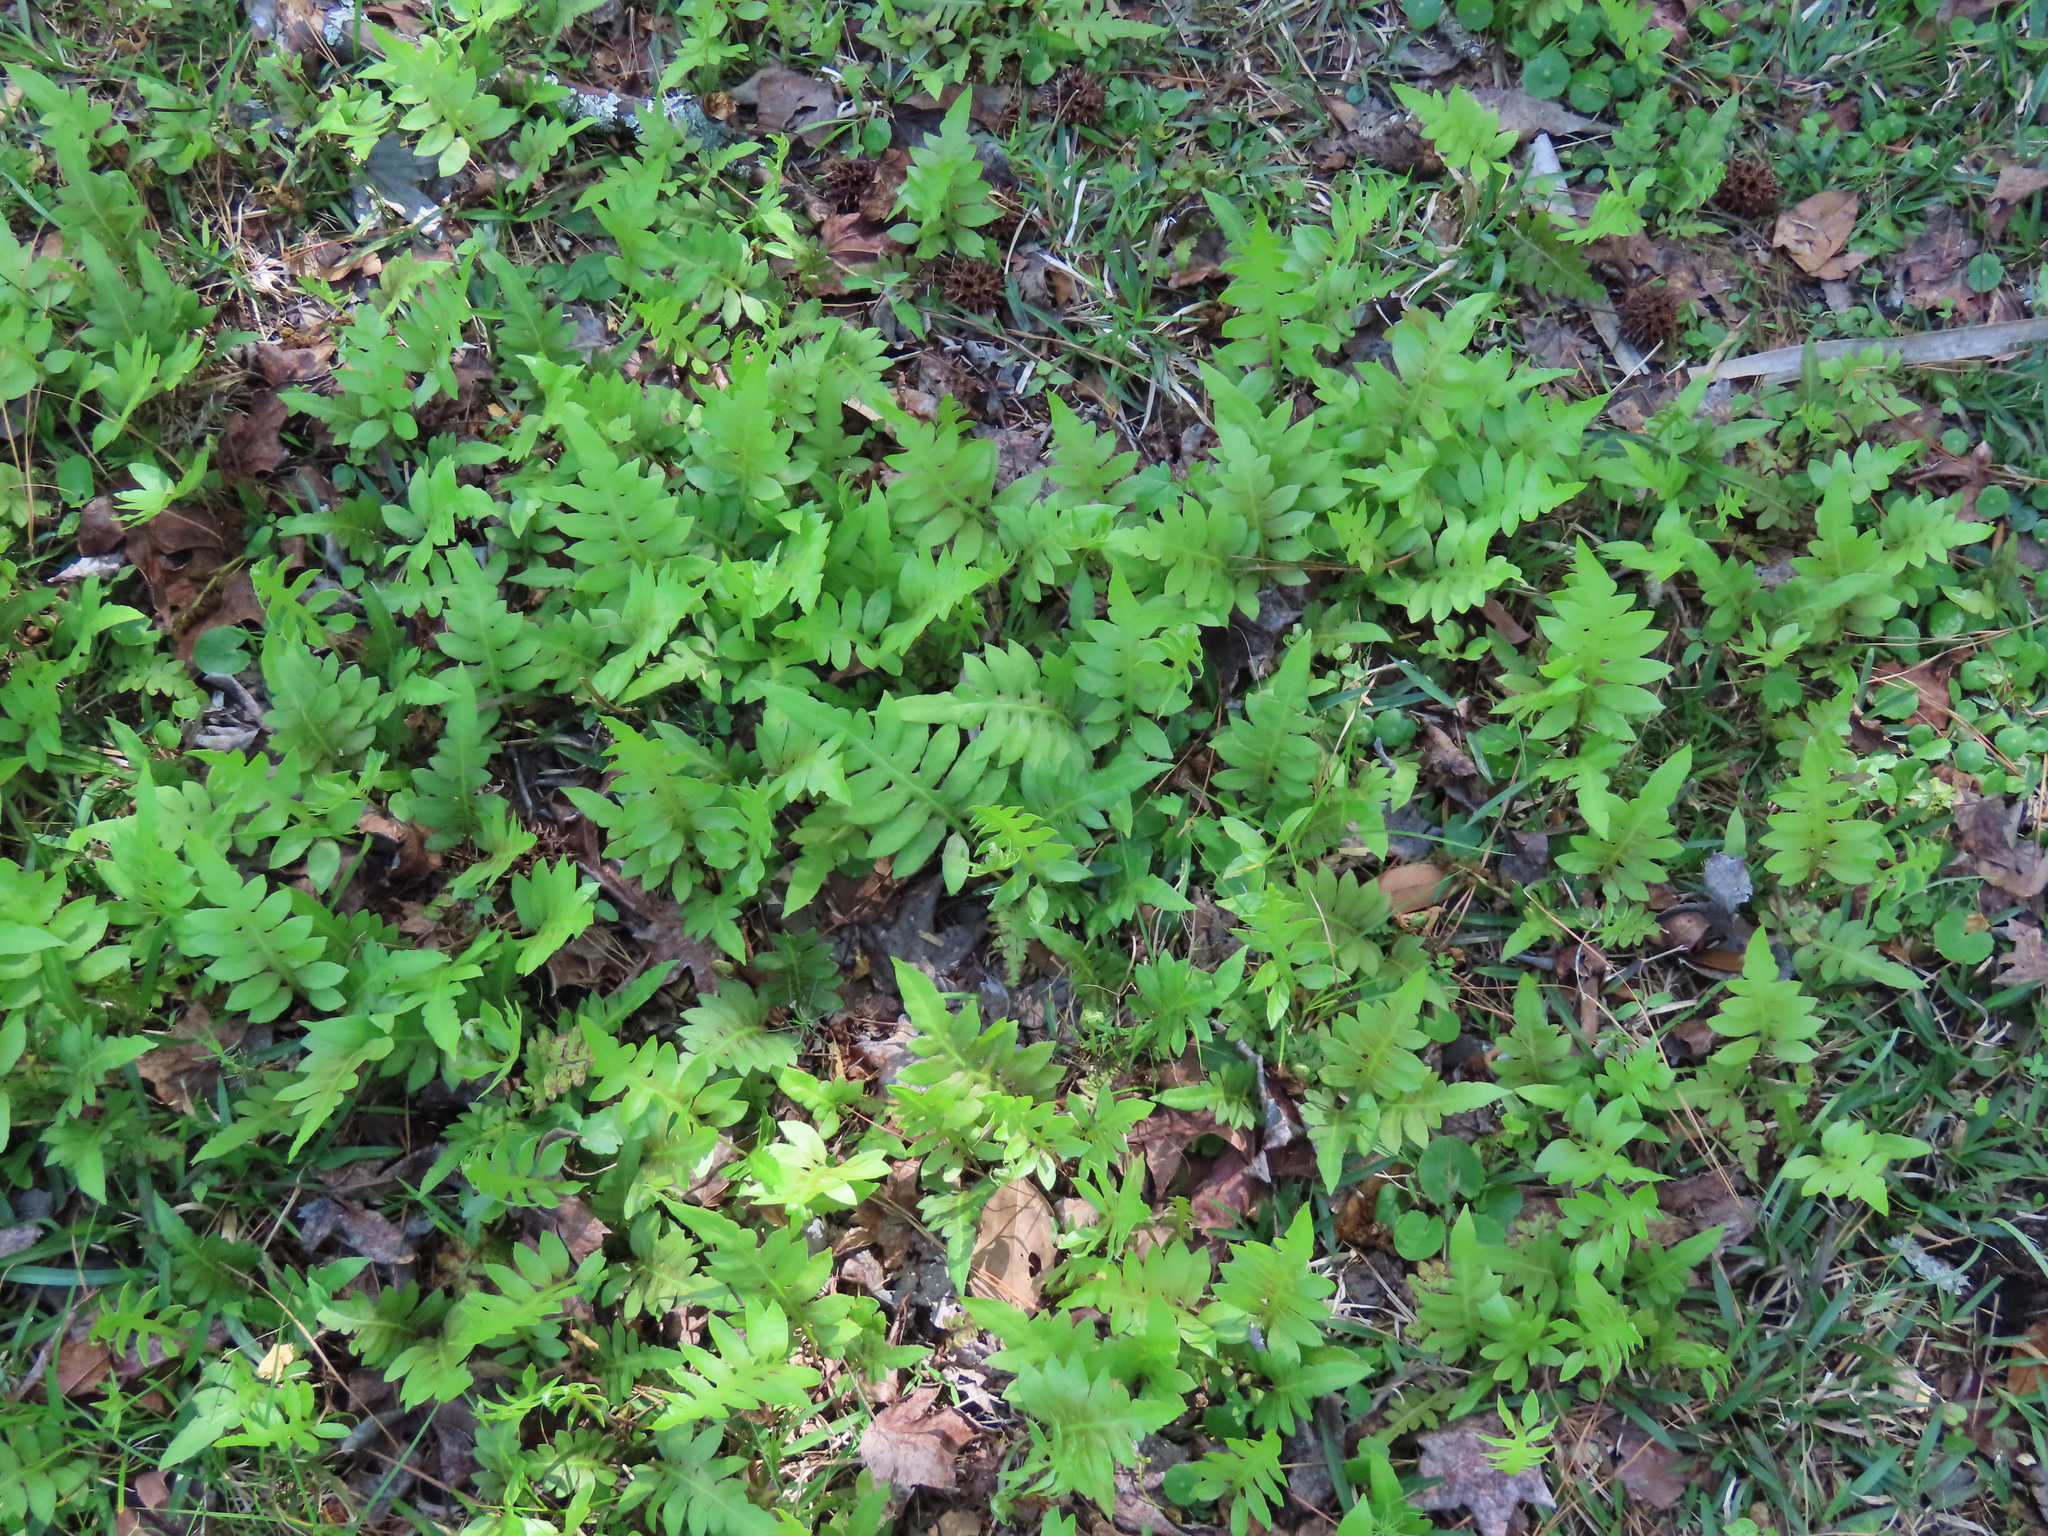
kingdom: Plantae
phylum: Tracheophyta
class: Polypodiopsida
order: Polypodiales
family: Blechnaceae
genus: Lorinseria
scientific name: Lorinseria areolata
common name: Dwarf chain fern
